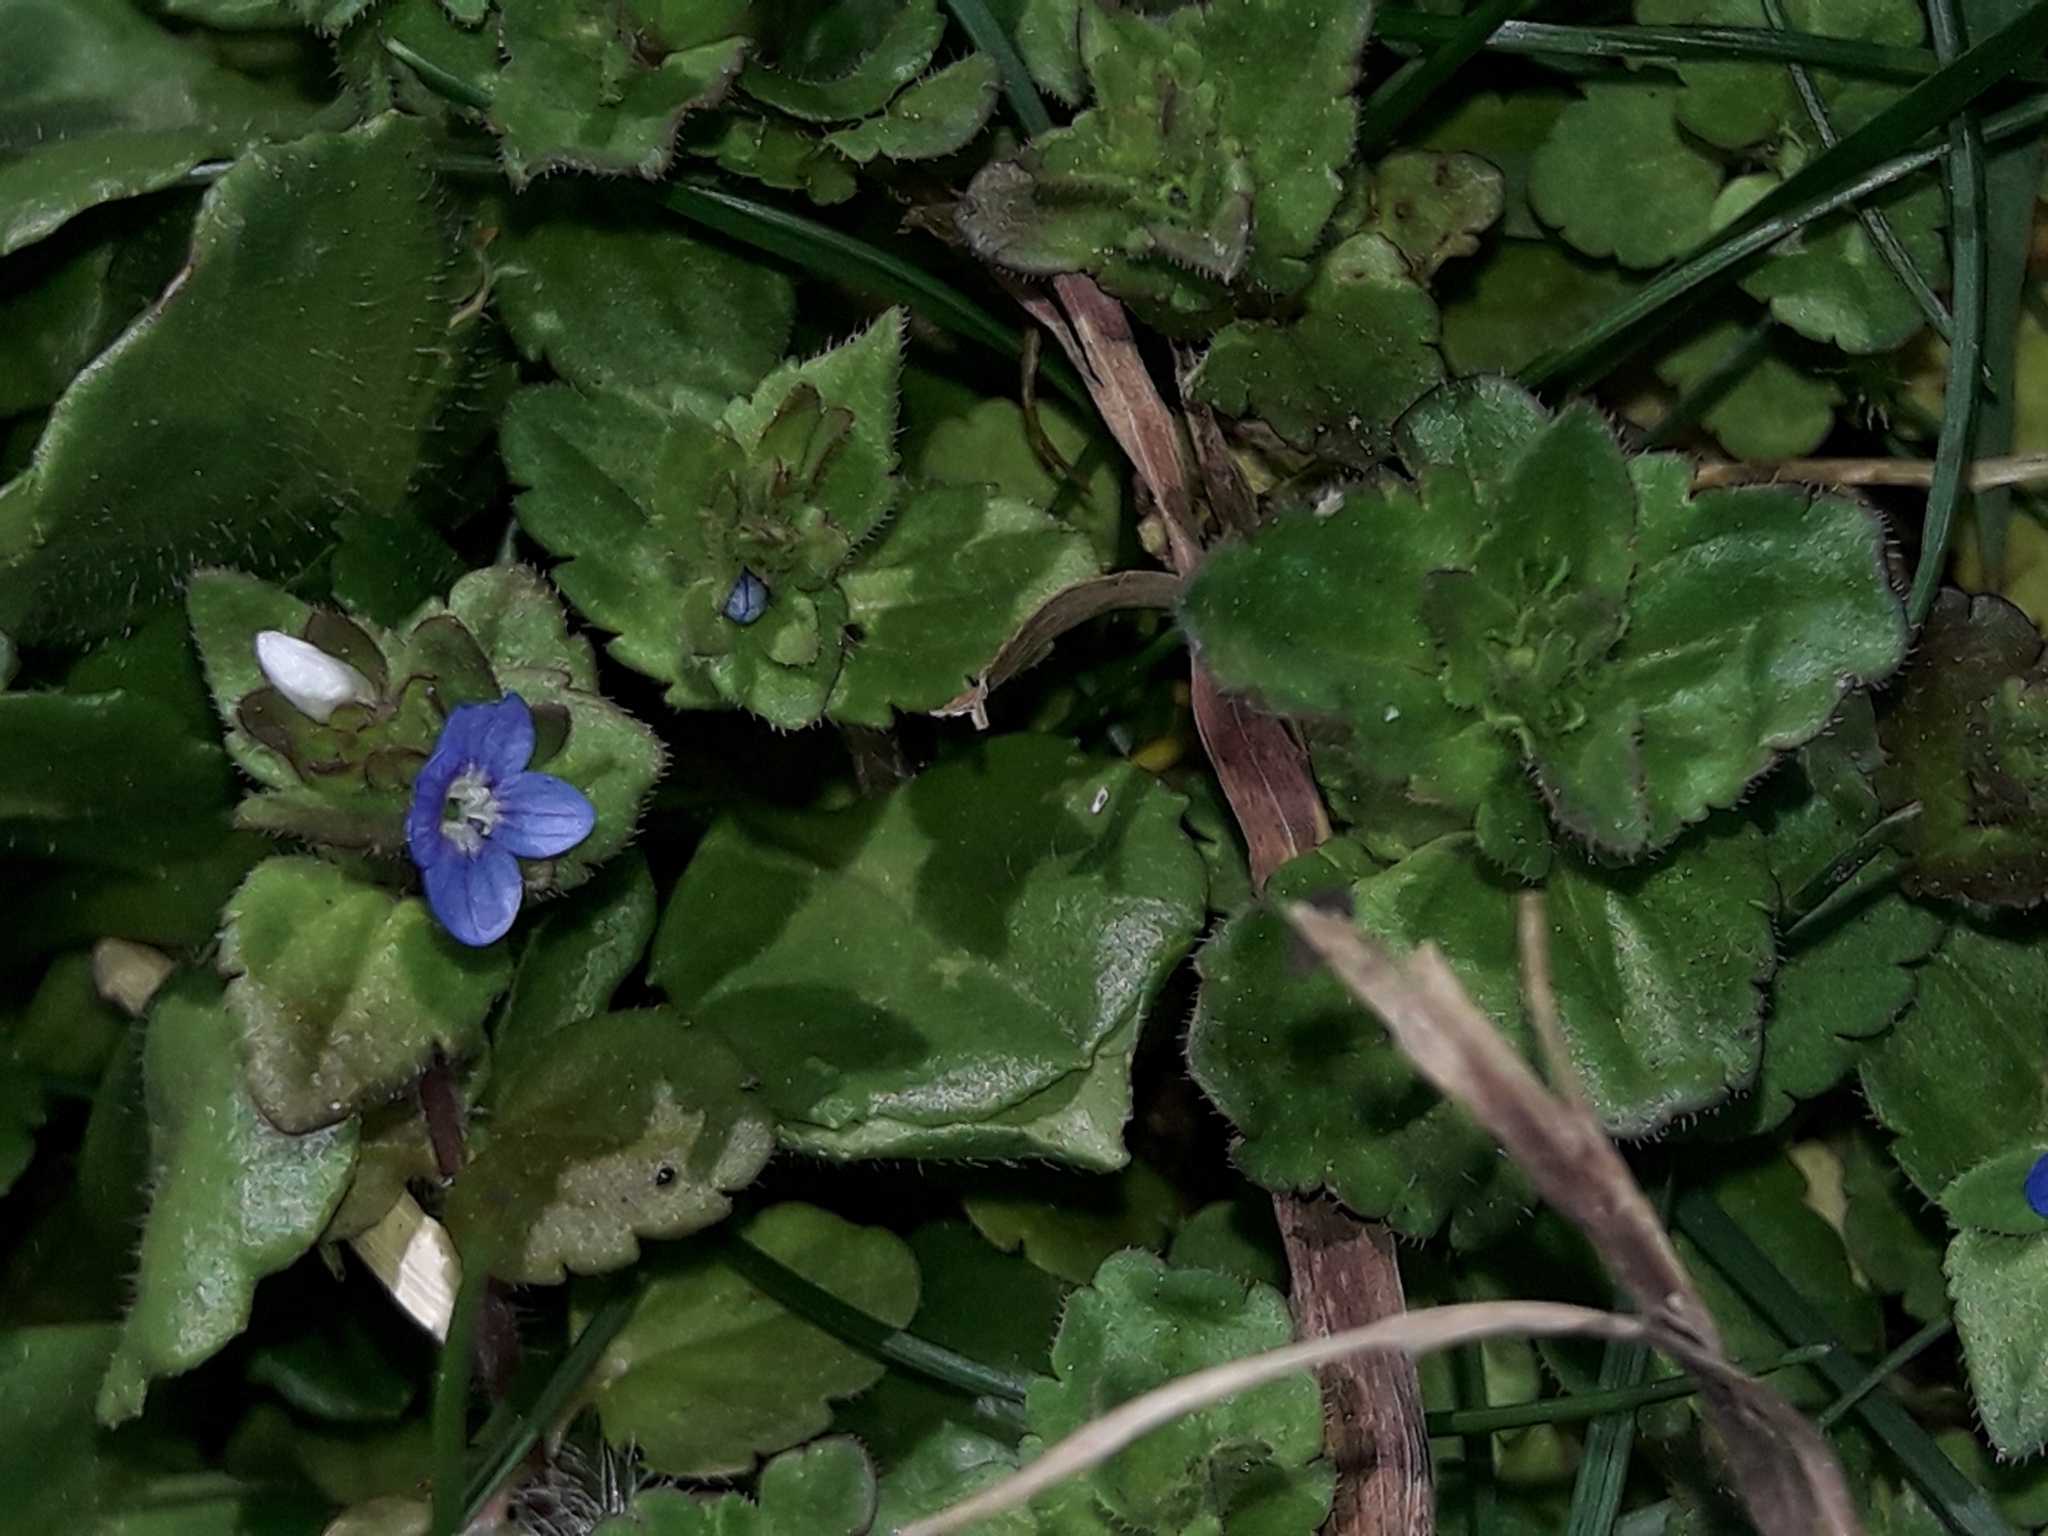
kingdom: Plantae
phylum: Tracheophyta
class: Magnoliopsida
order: Lamiales
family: Plantaginaceae
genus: Veronica
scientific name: Veronica arvensis
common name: Corn speedwell
